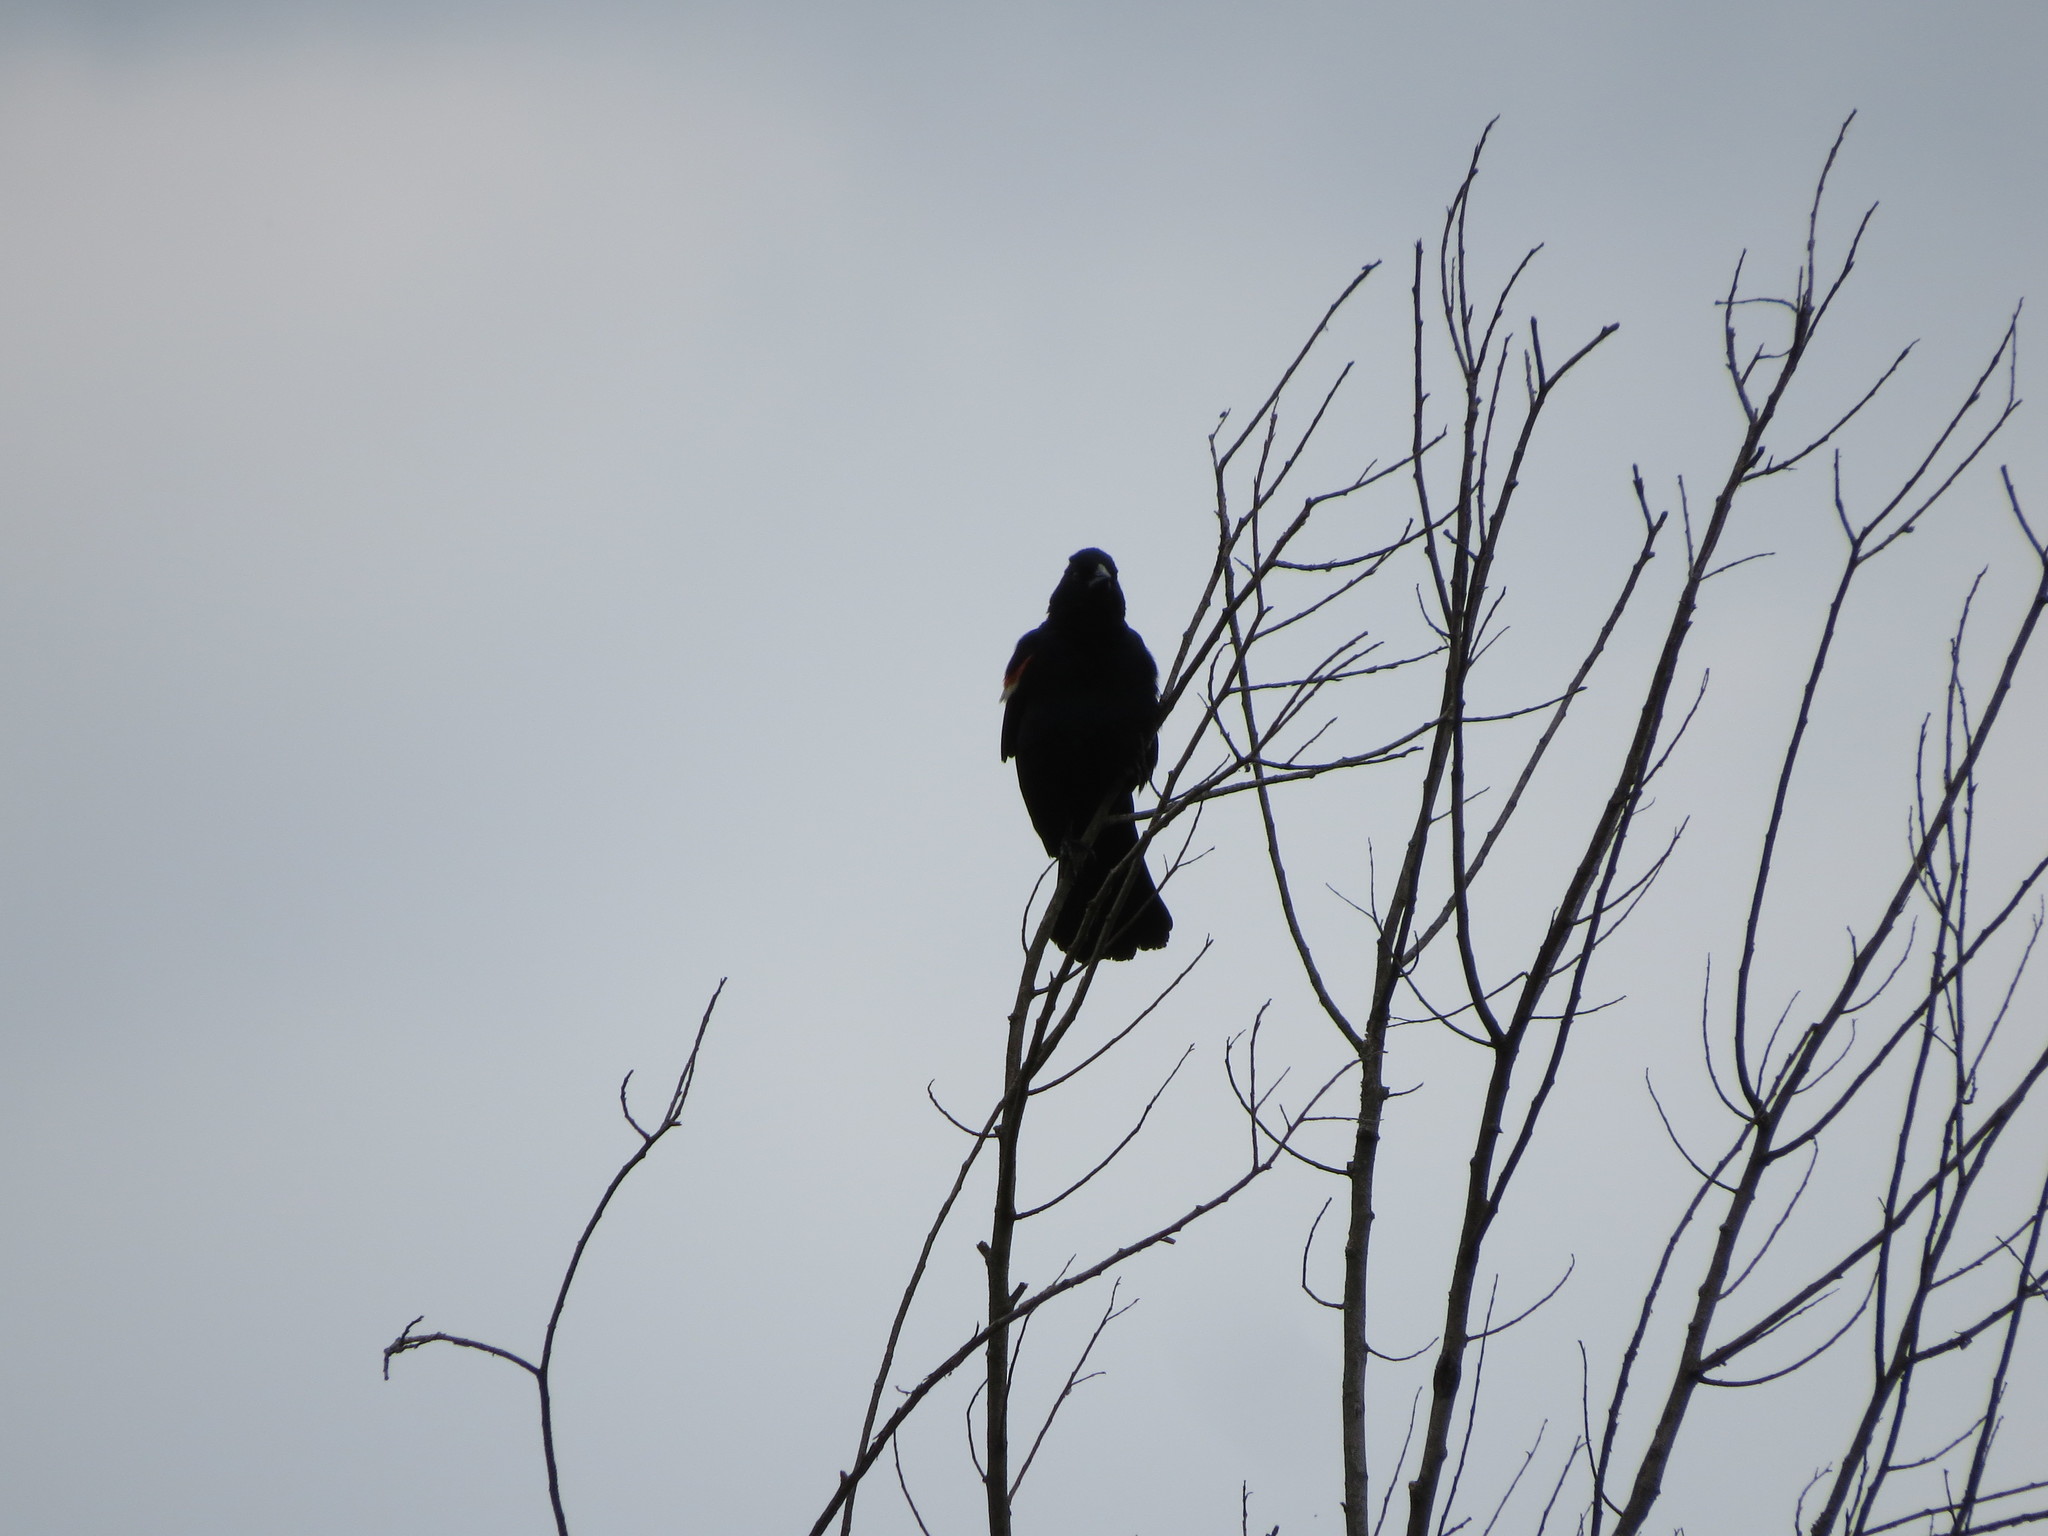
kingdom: Animalia
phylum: Chordata
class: Aves
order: Passeriformes
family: Icteridae
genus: Agelaius
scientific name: Agelaius phoeniceus
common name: Red-winged blackbird
